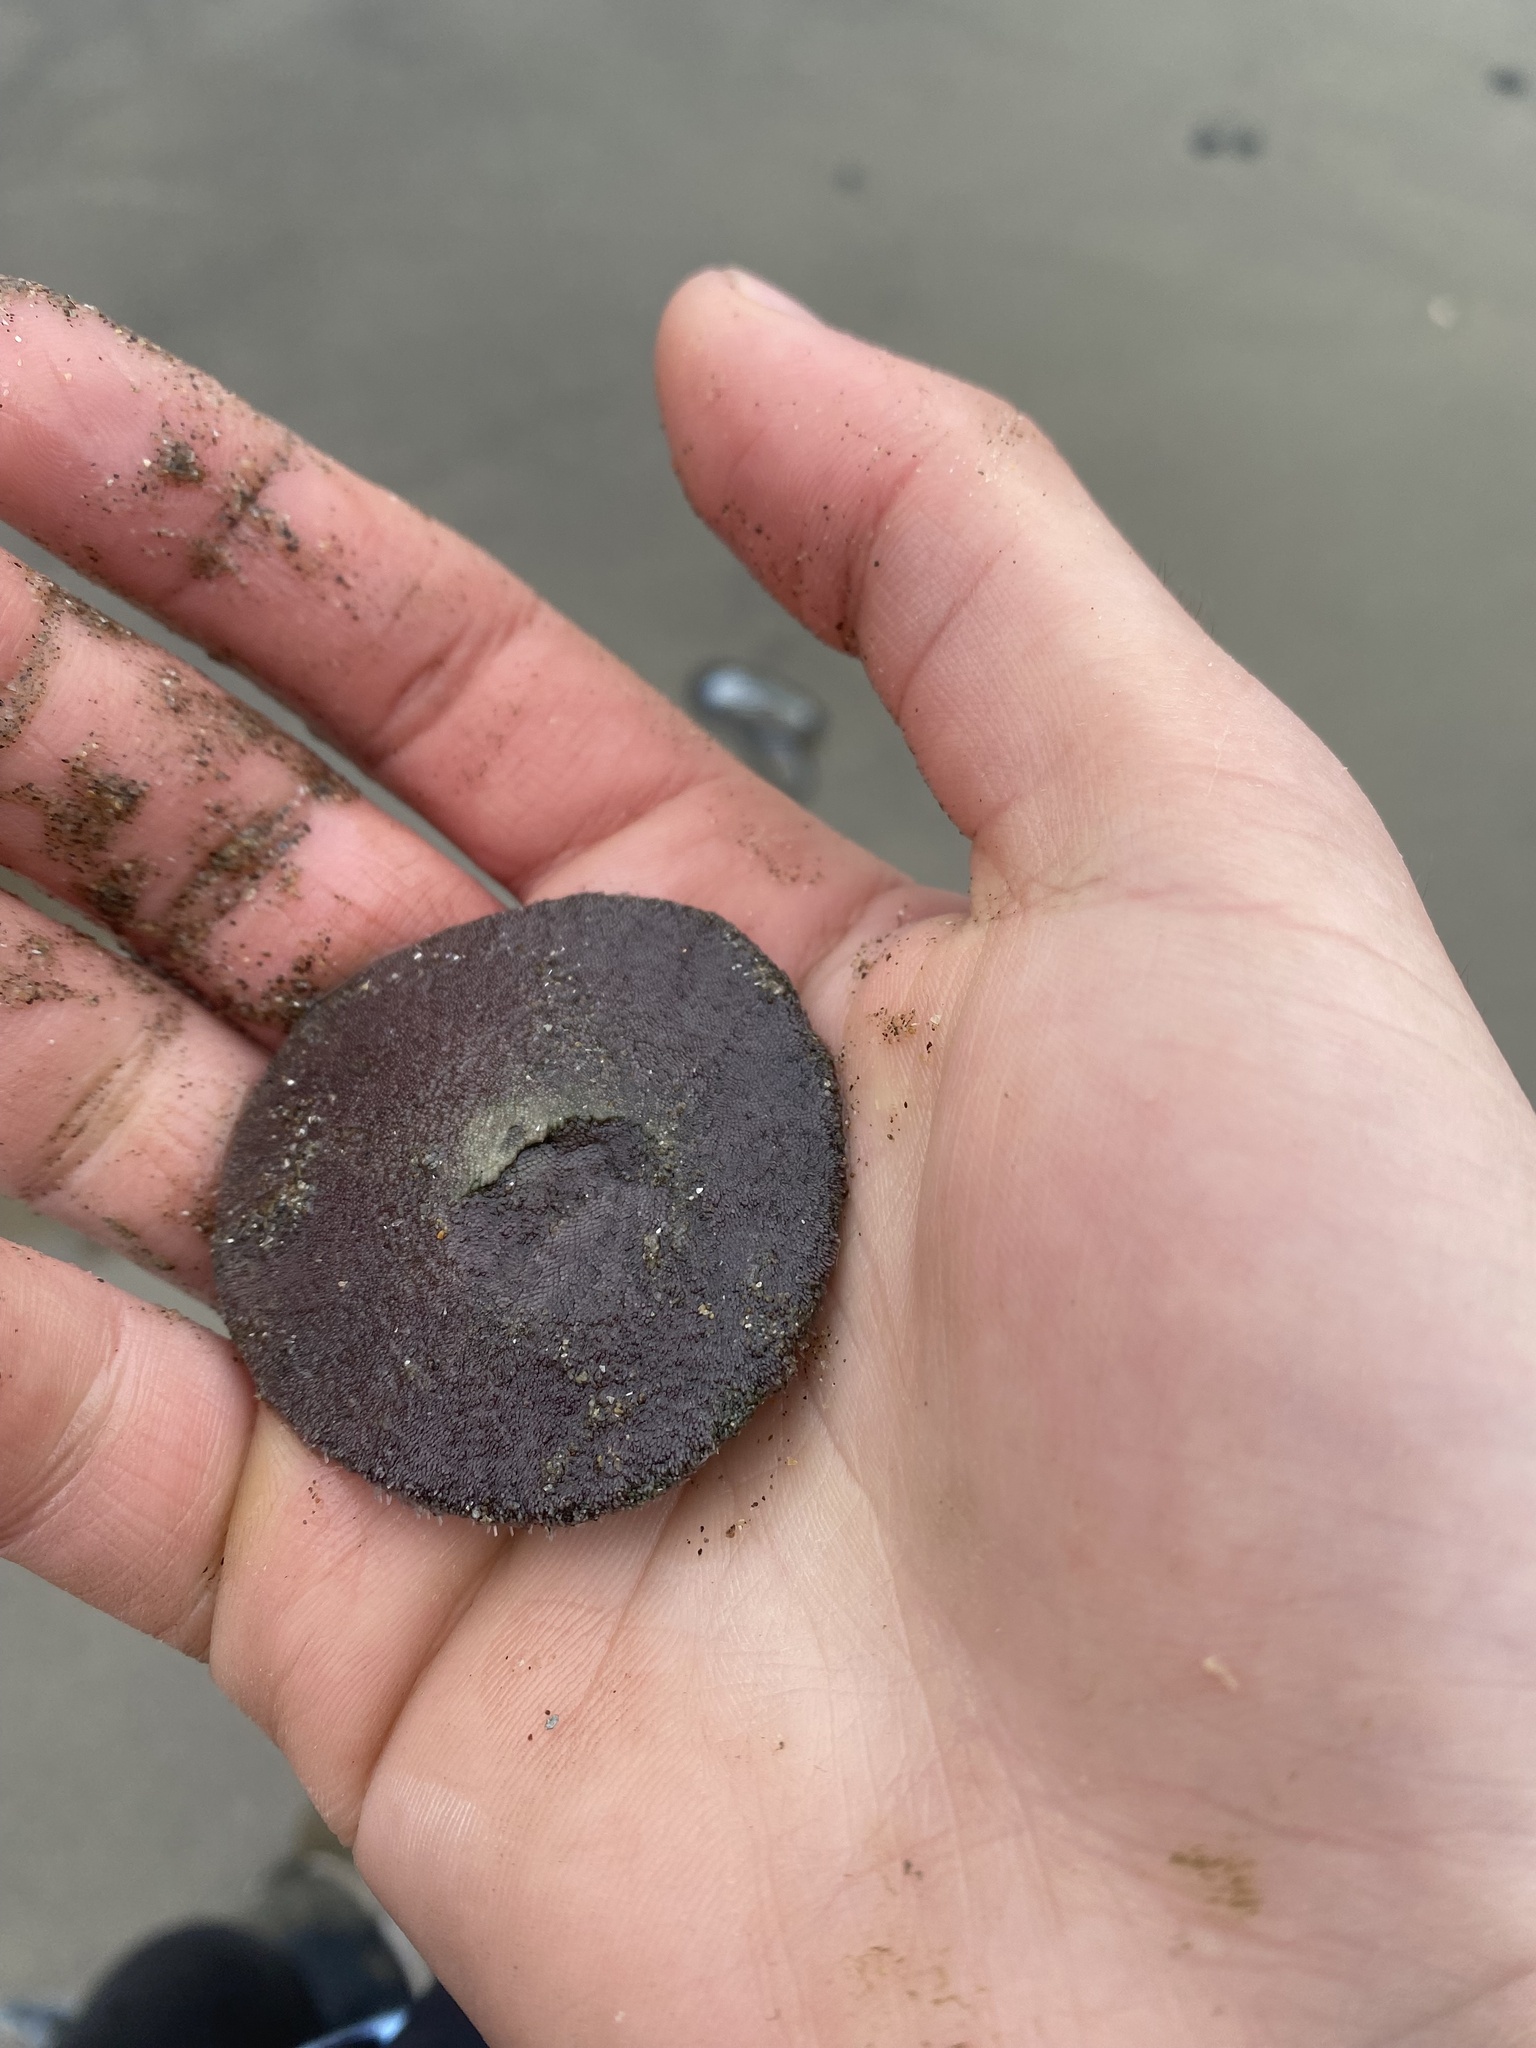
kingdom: Animalia
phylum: Echinodermata
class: Echinoidea
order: Echinolampadacea
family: Dendrasteridae
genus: Dendraster
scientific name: Dendraster excentricus
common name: Eccentric sand dollar sea urchin
